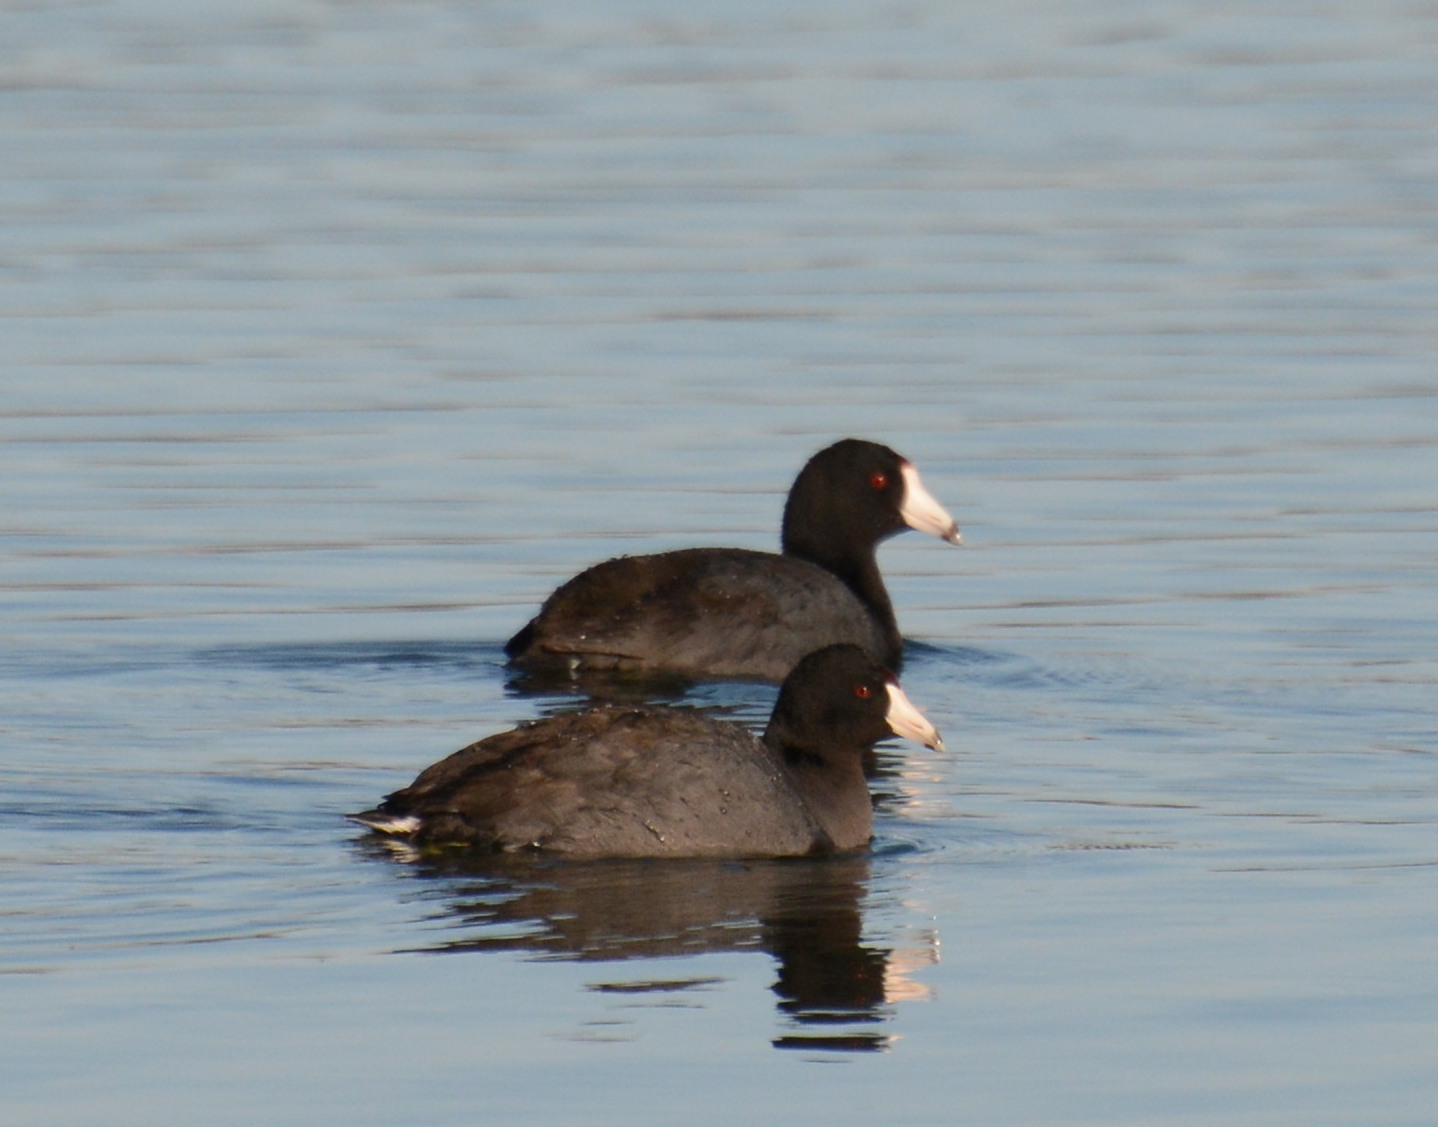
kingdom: Animalia
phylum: Chordata
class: Aves
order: Gruiformes
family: Rallidae
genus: Fulica
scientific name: Fulica americana
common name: American coot
